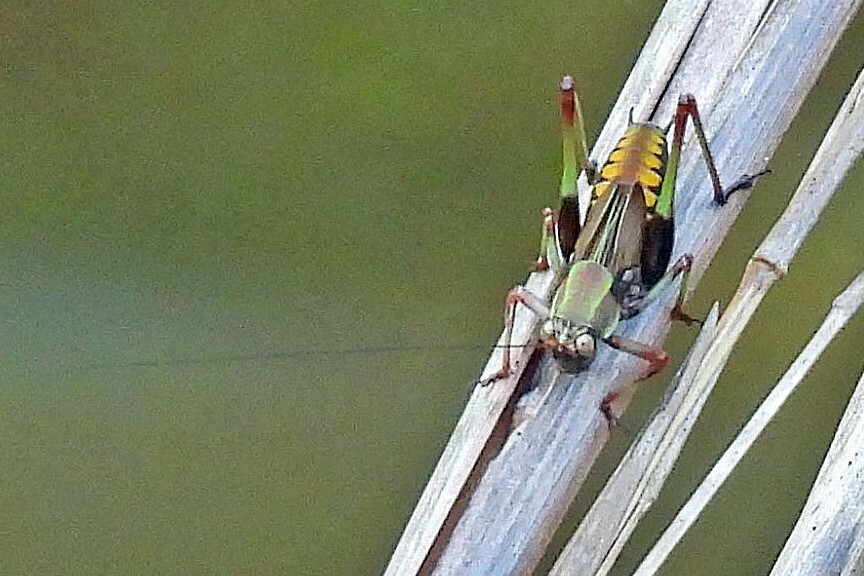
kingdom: Animalia
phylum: Arthropoda
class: Insecta
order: Orthoptera
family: Tettigoniidae
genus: Enthephippion
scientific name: Enthephippion olivaceum
